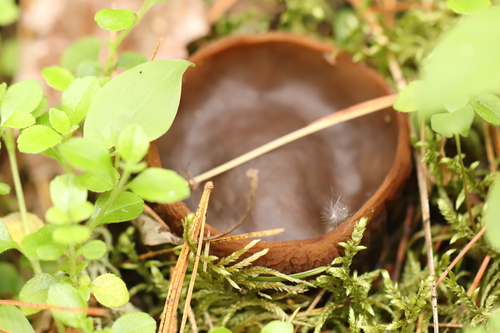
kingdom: Fungi
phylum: Ascomycota
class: Pezizomycetes
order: Pezizales
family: Sarcosomataceae
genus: Sarcosoma
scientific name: Sarcosoma globosum
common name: Charred-pancake cup
